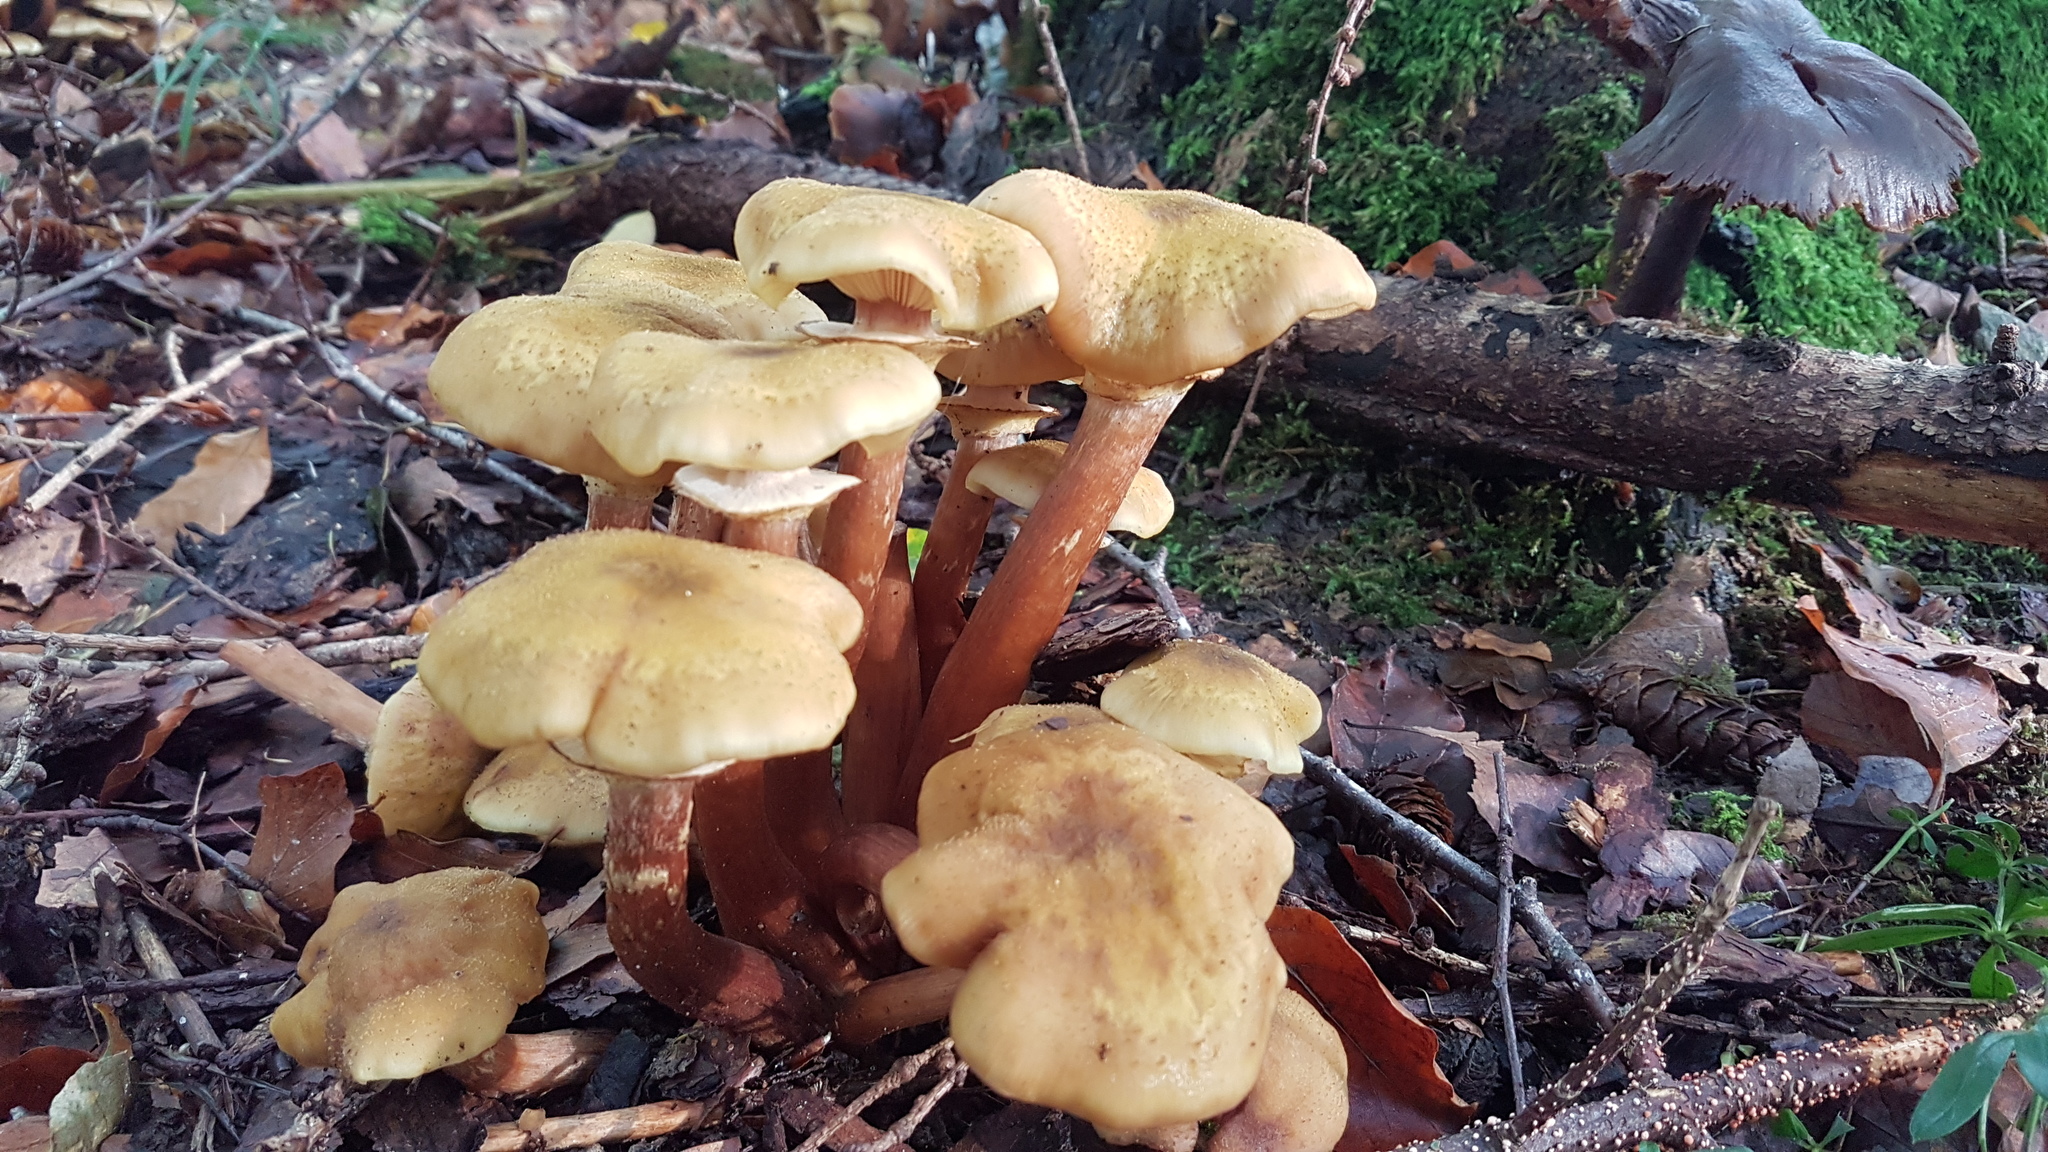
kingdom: Fungi
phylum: Basidiomycota
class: Agaricomycetes
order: Agaricales
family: Physalacriaceae
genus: Armillaria
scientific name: Armillaria mellea
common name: Honey fungus
